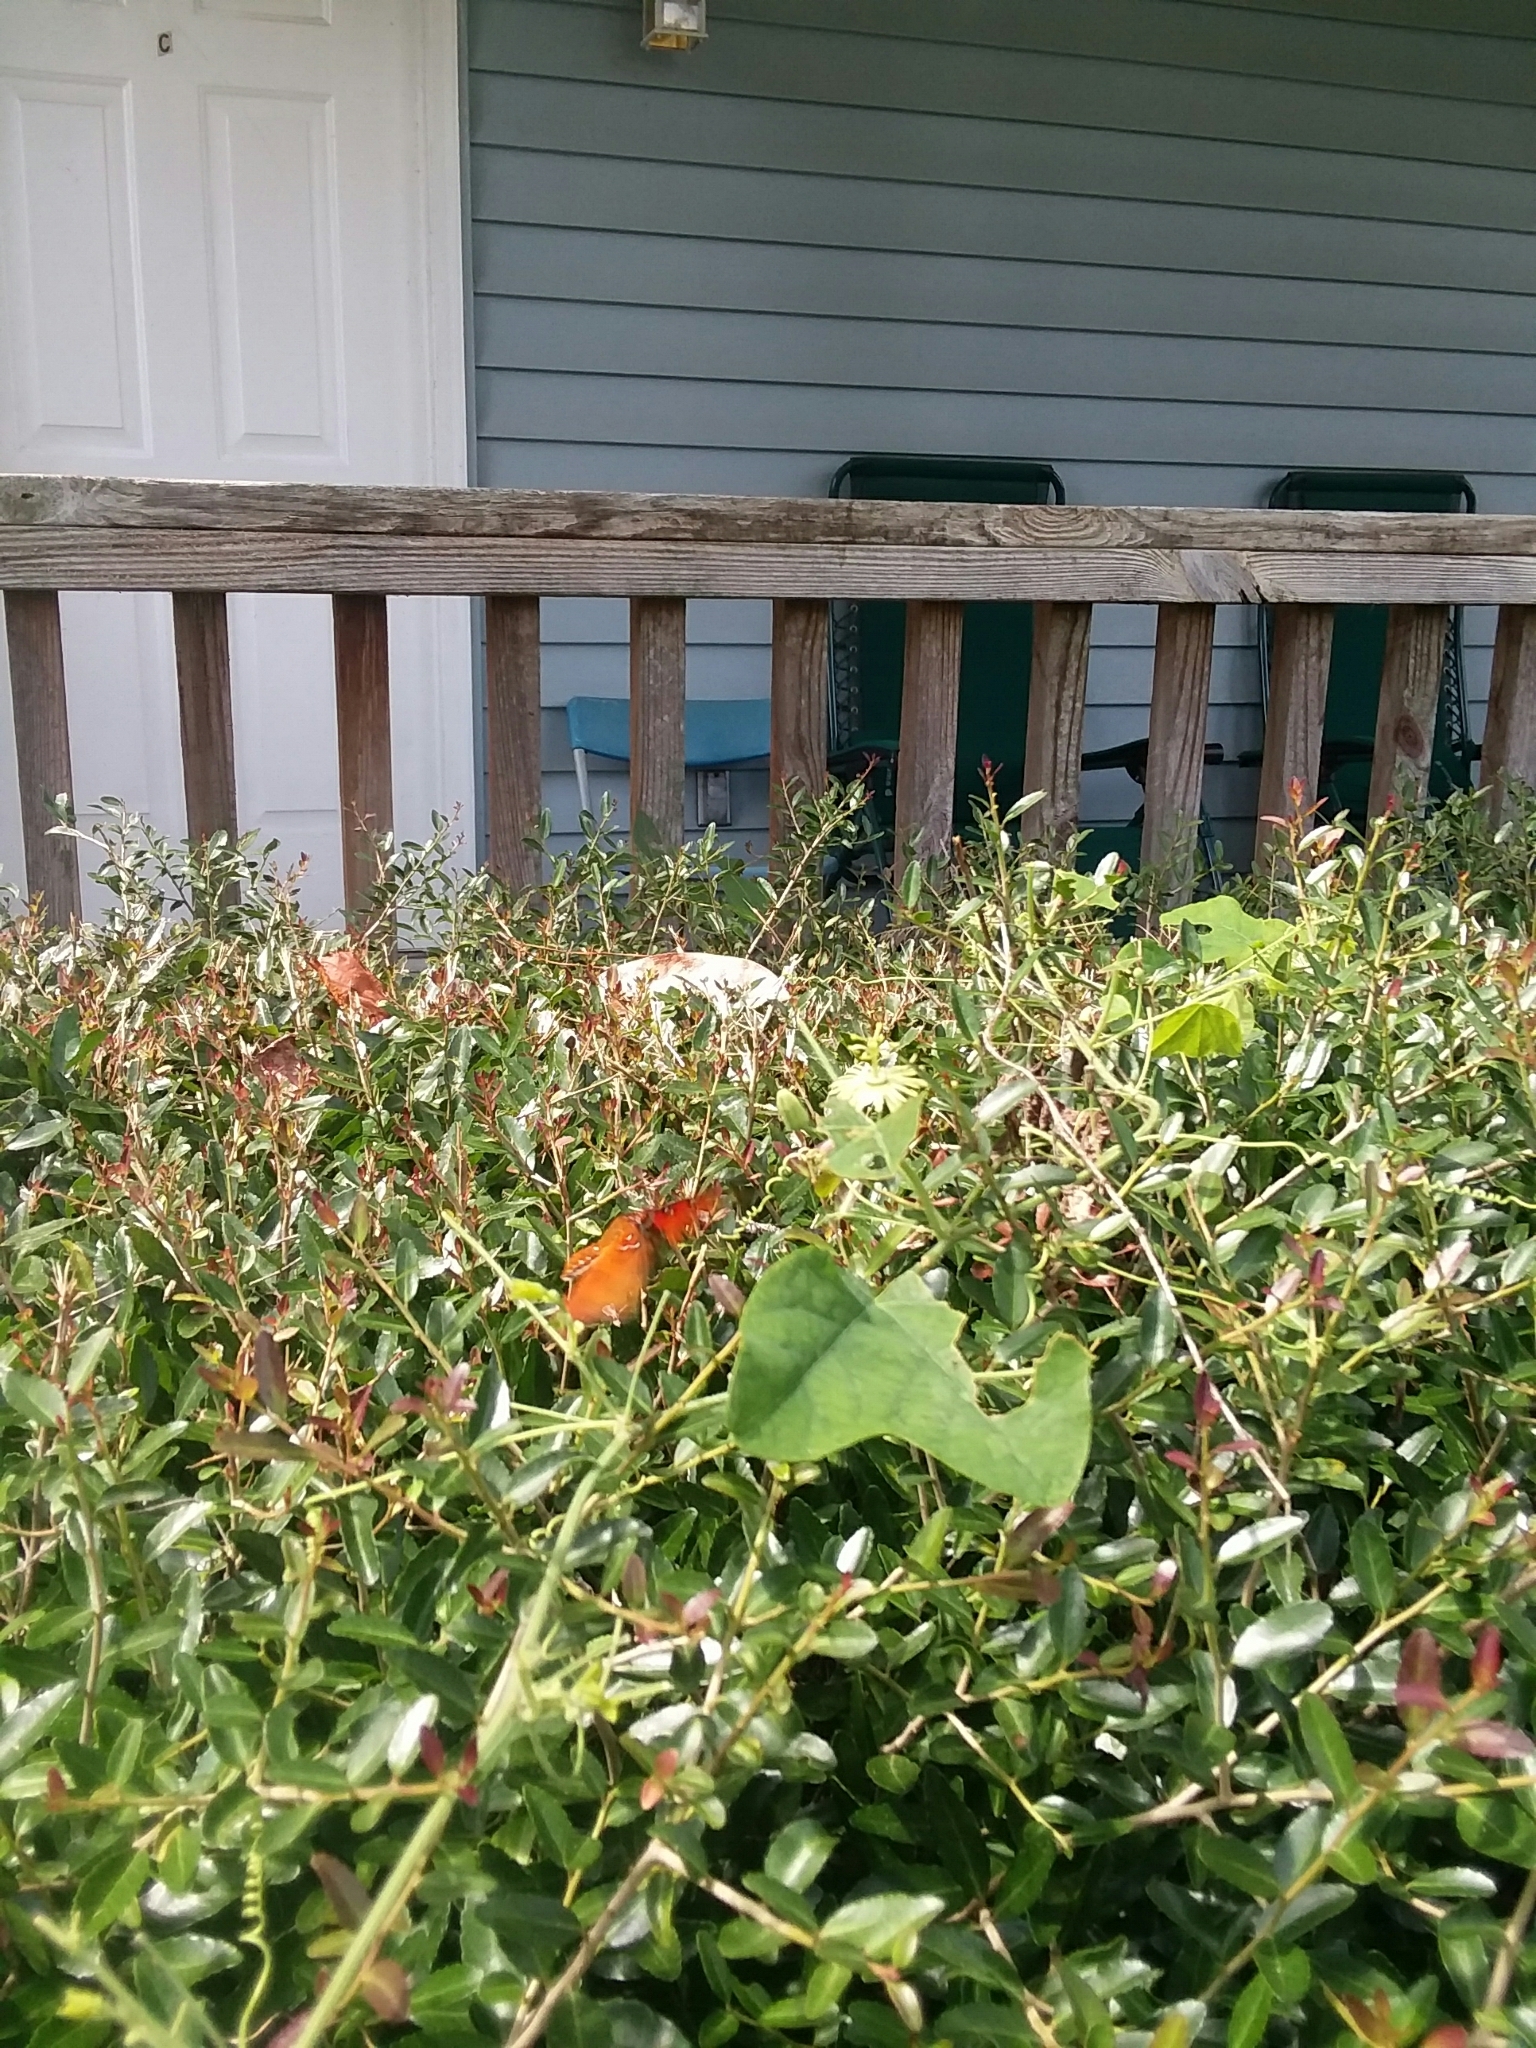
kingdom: Animalia
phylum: Arthropoda
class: Insecta
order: Lepidoptera
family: Nymphalidae
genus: Dione
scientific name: Dione vanillae
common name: Gulf fritillary
